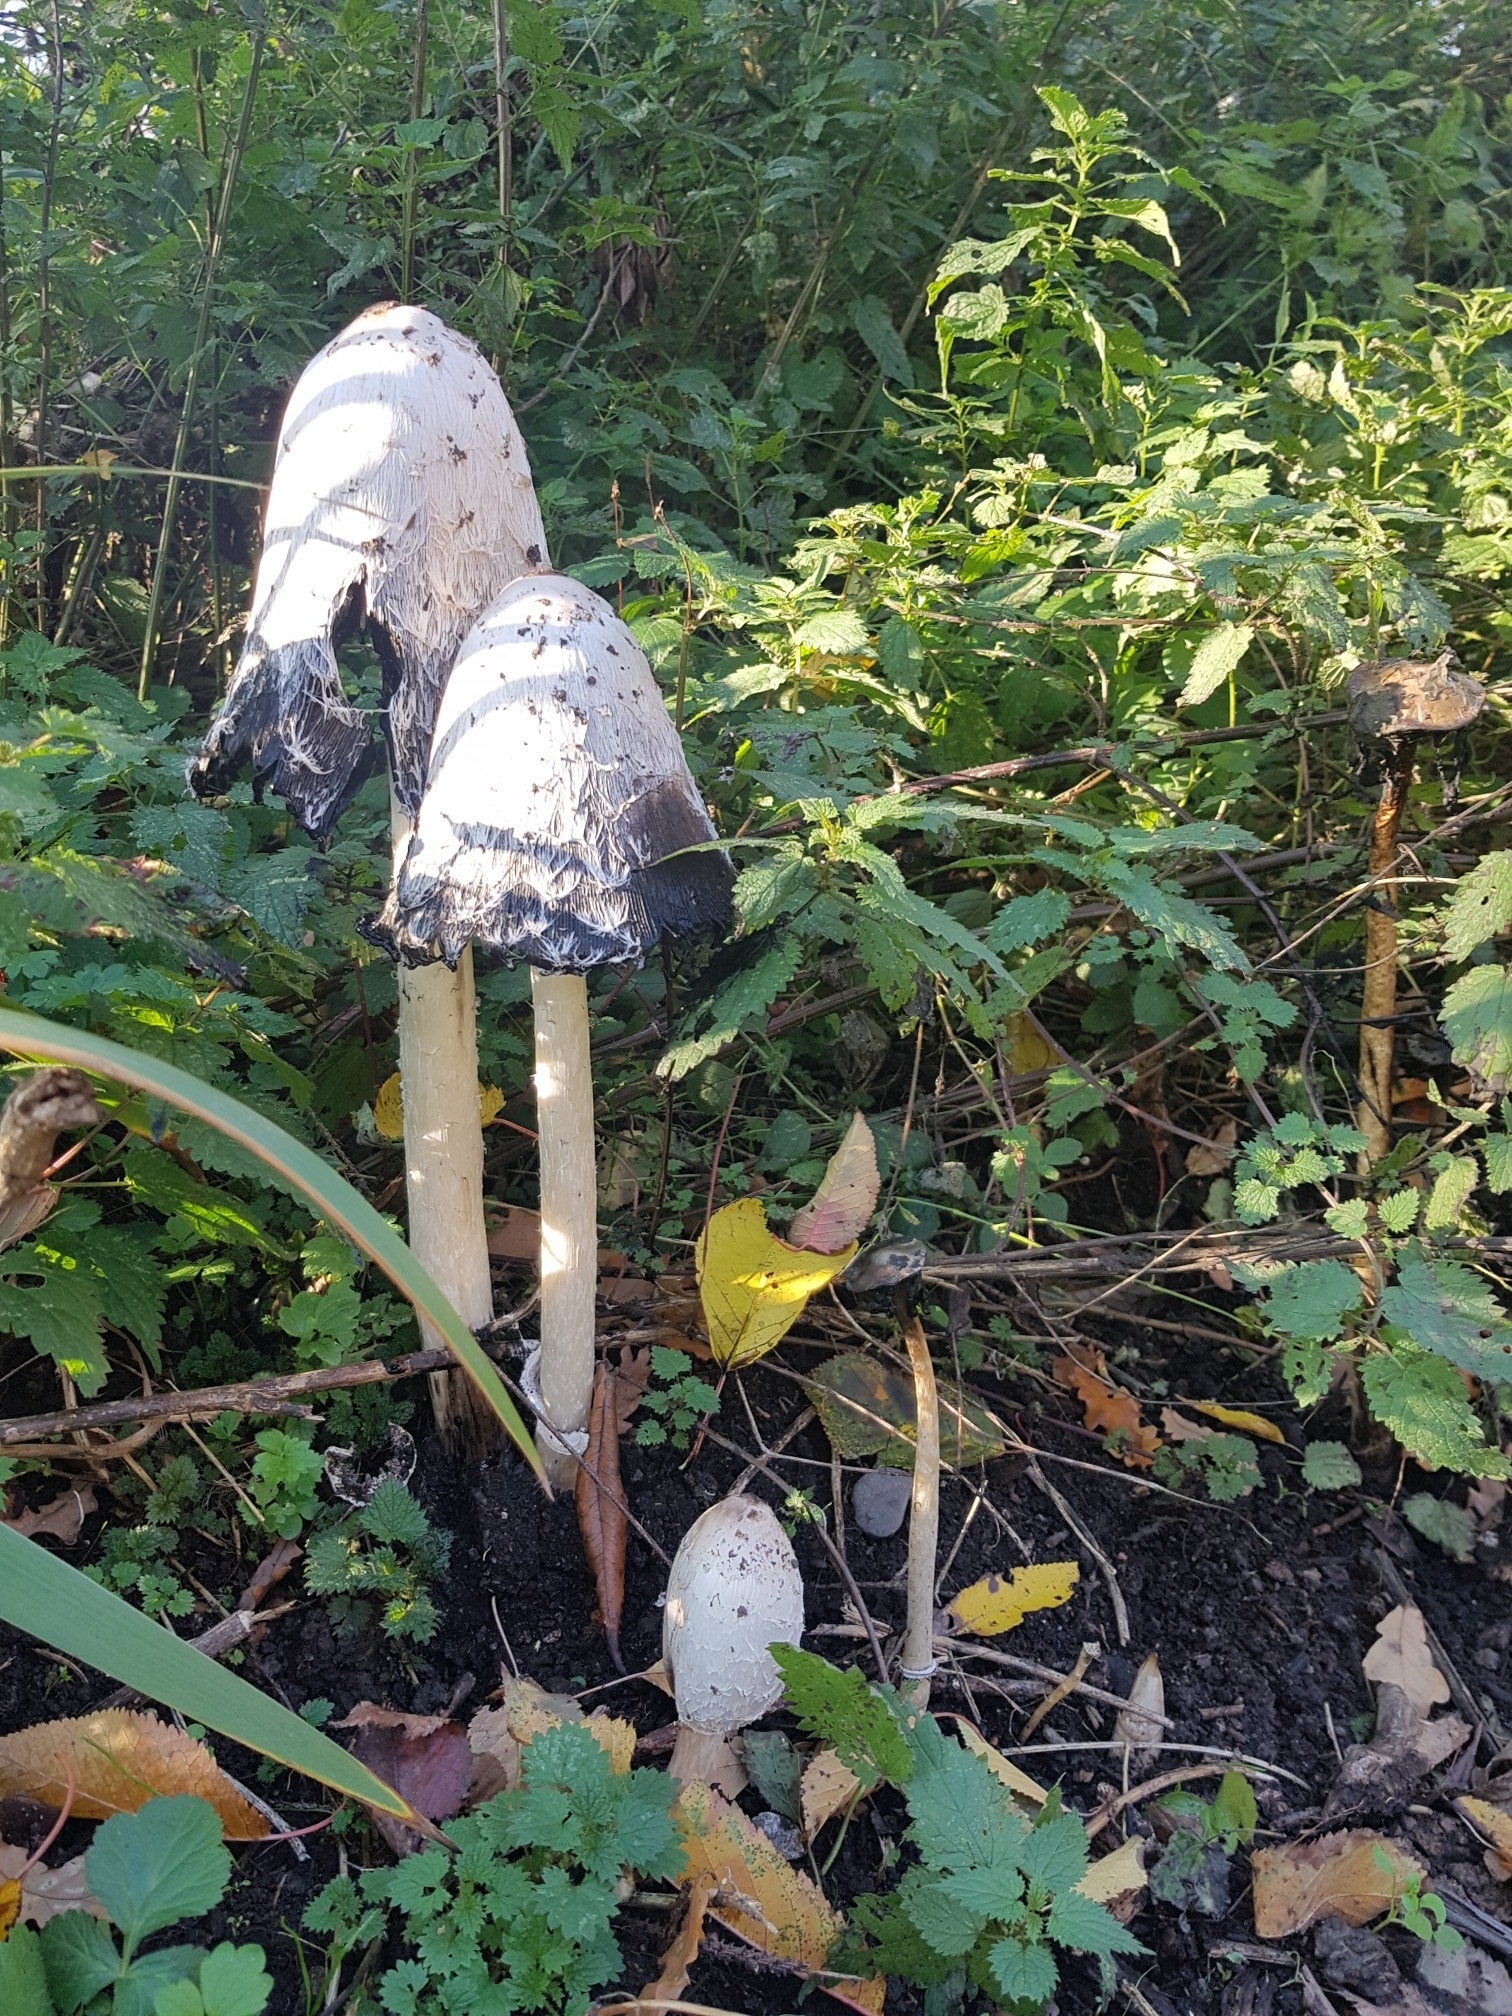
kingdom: Fungi
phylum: Basidiomycota
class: Agaricomycetes
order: Agaricales
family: Agaricaceae
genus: Coprinus
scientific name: Coprinus comatus
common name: Lawyer's wig
